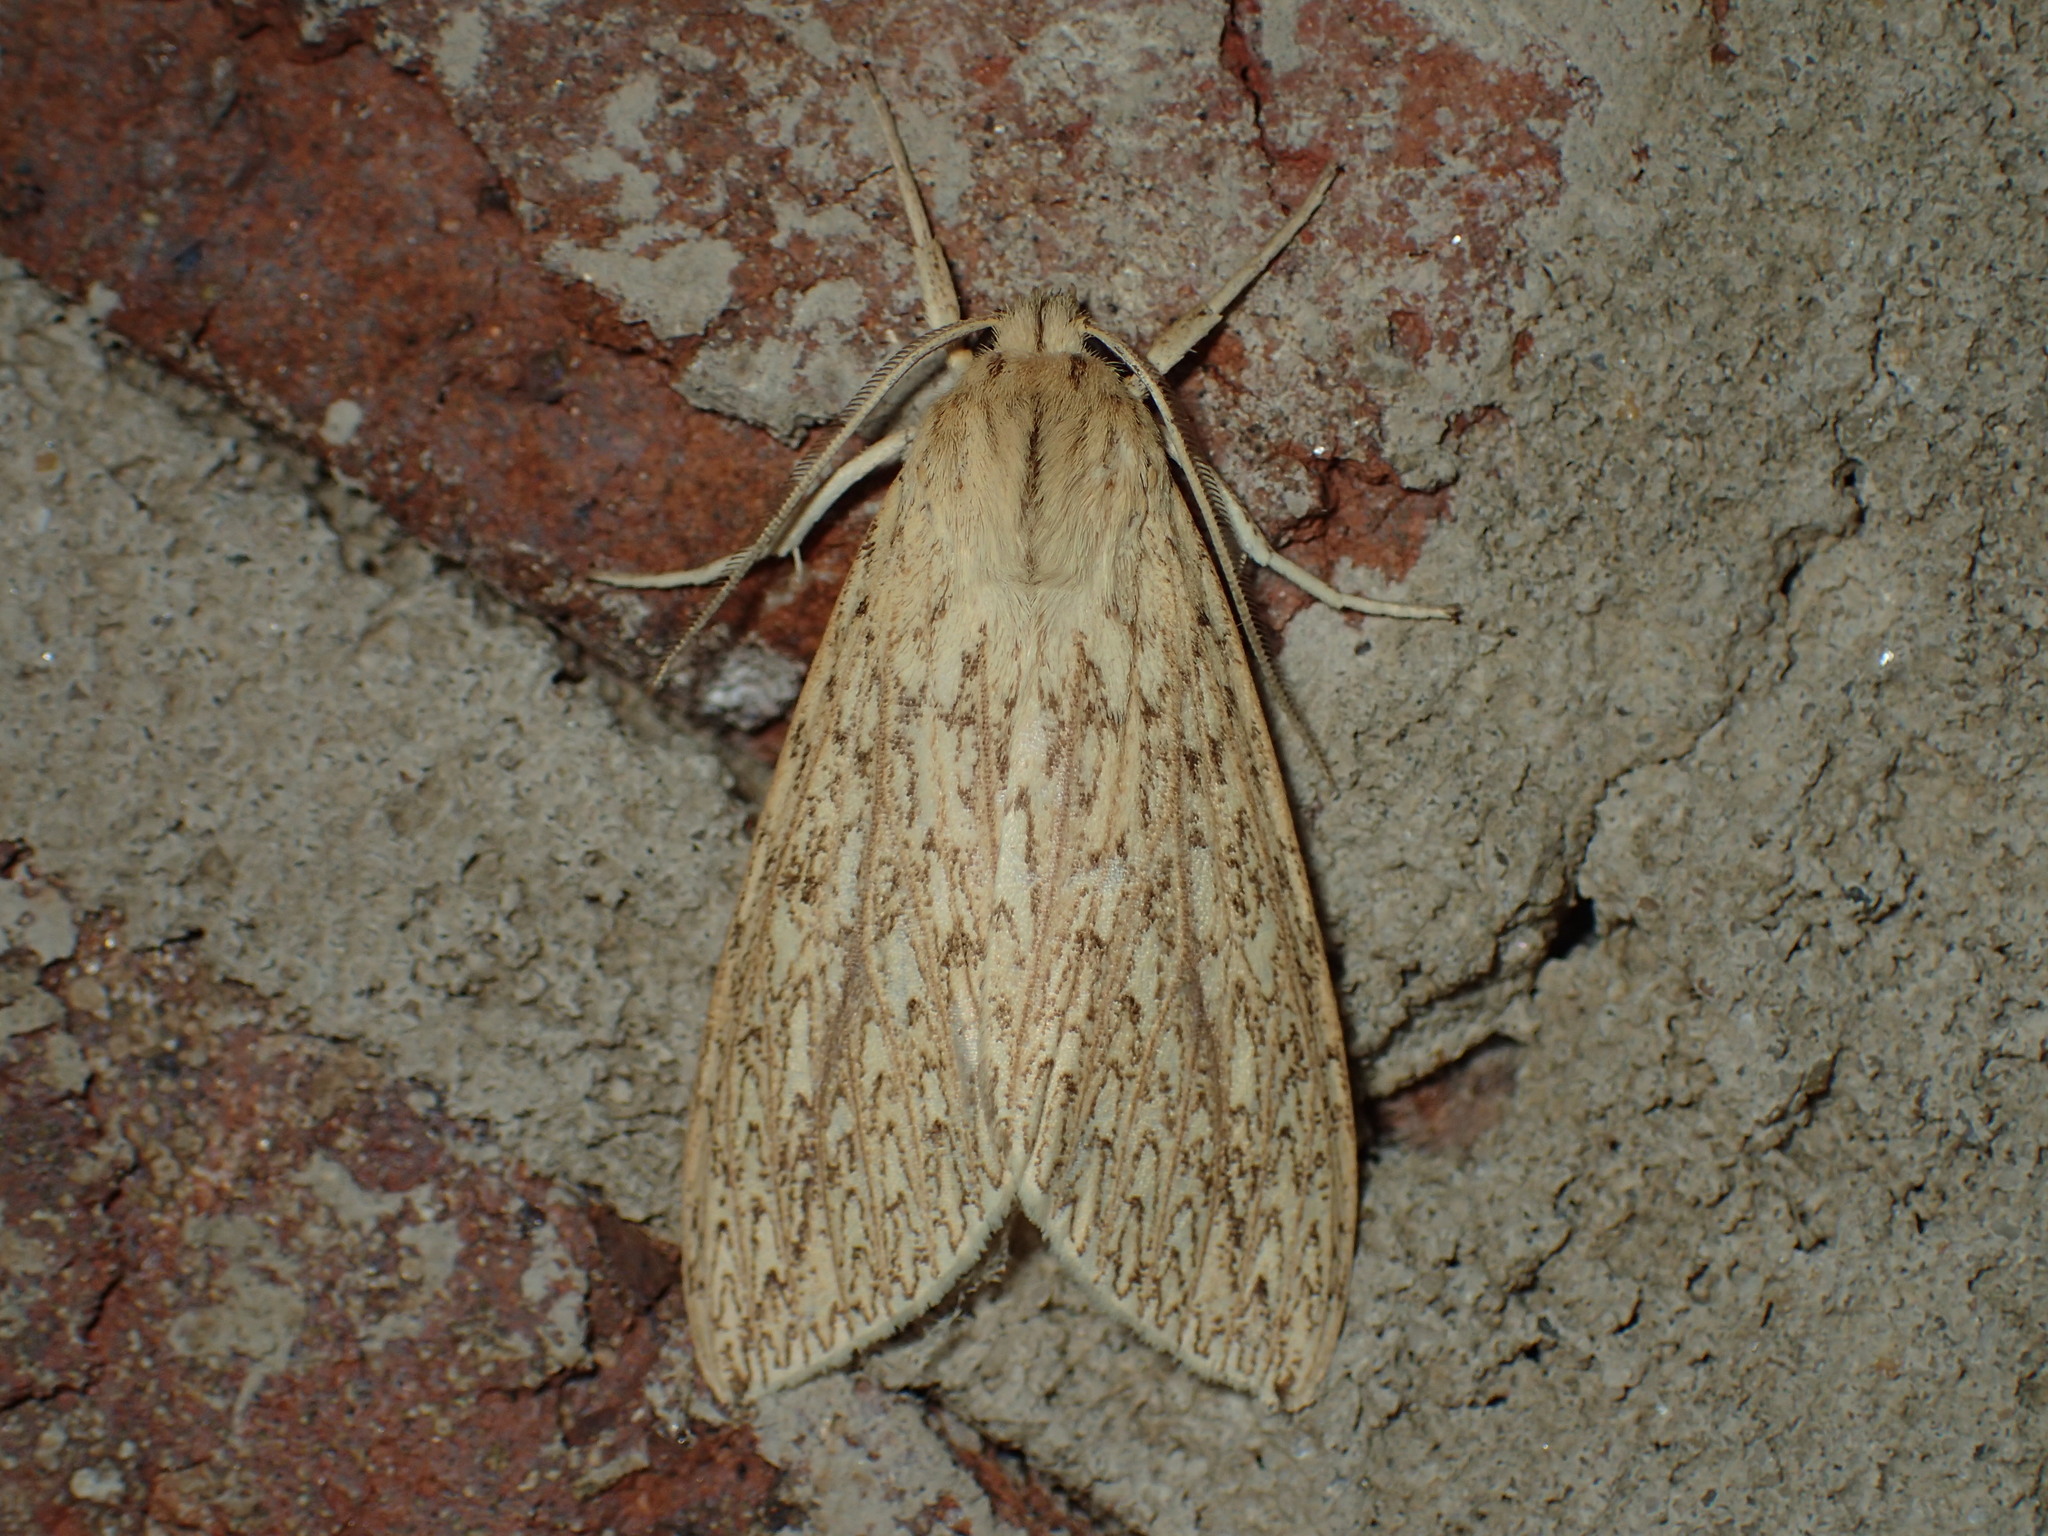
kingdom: Animalia
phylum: Arthropoda
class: Insecta
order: Lepidoptera
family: Erebidae
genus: Leucanopsis
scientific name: Leucanopsis longa
